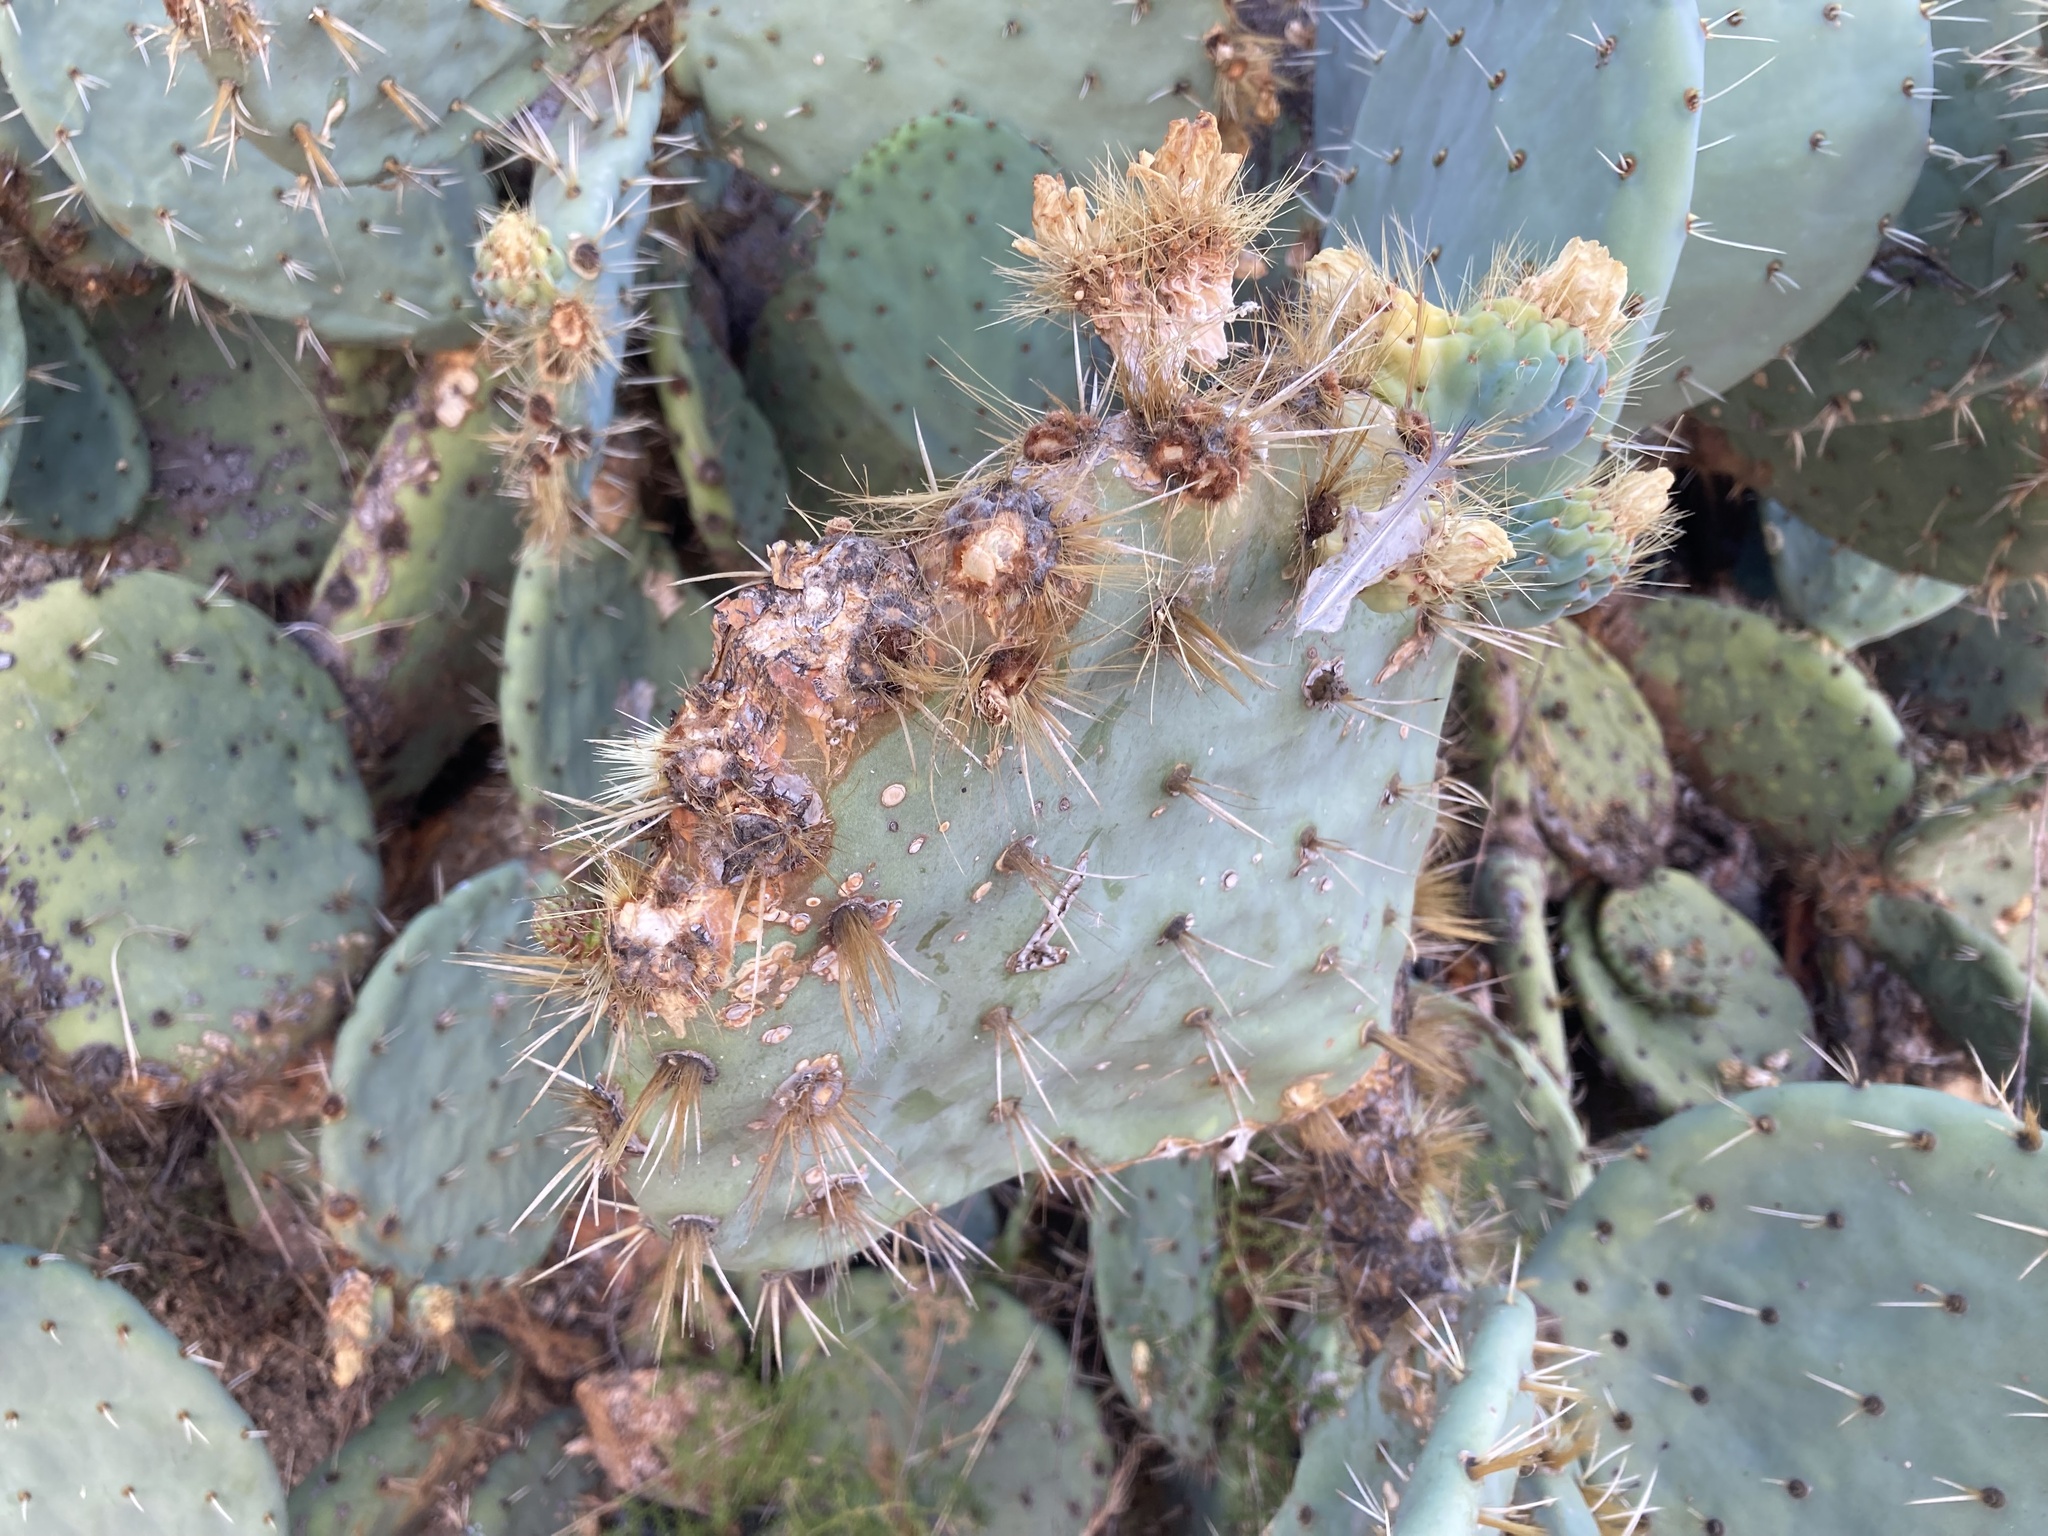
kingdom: Plantae
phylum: Tracheophyta
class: Magnoliopsida
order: Caryophyllales
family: Cactaceae
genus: Opuntia
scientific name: Opuntia robusta
